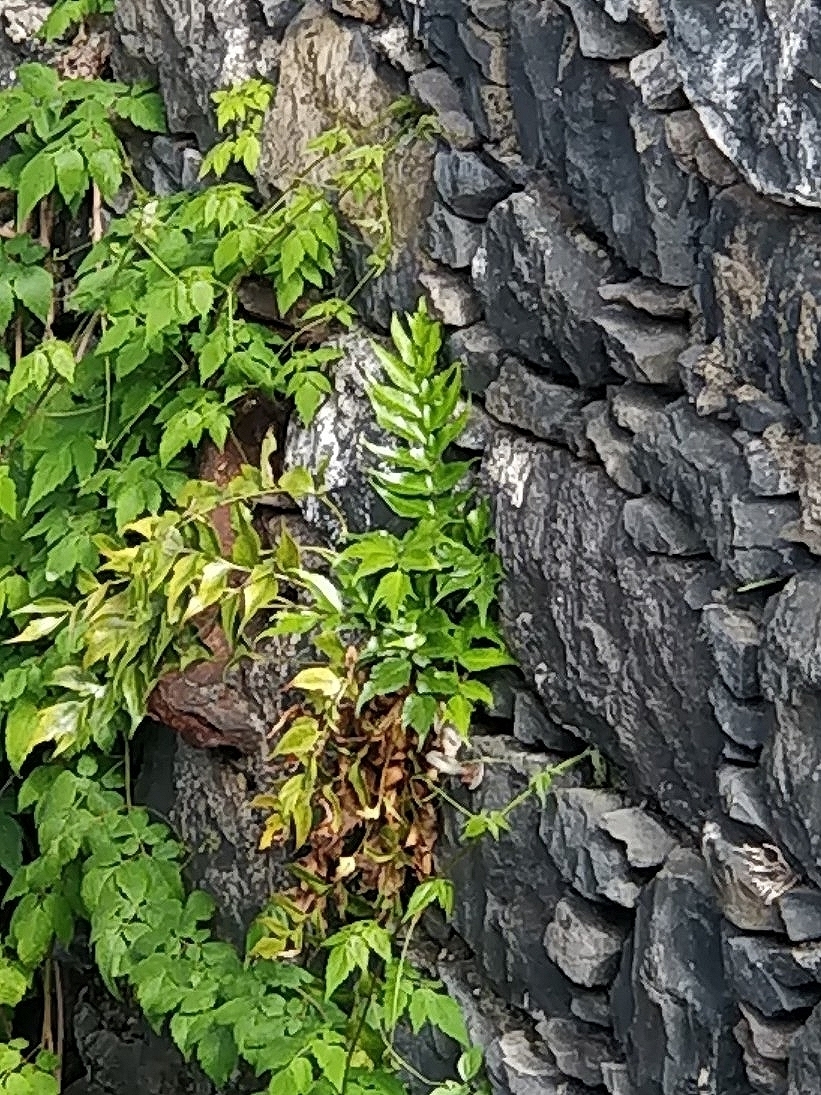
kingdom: Plantae
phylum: Tracheophyta
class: Polypodiopsida
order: Polypodiales
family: Dryopteridaceae
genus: Cyrtomium
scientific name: Cyrtomium falcatum
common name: House holly-fern
